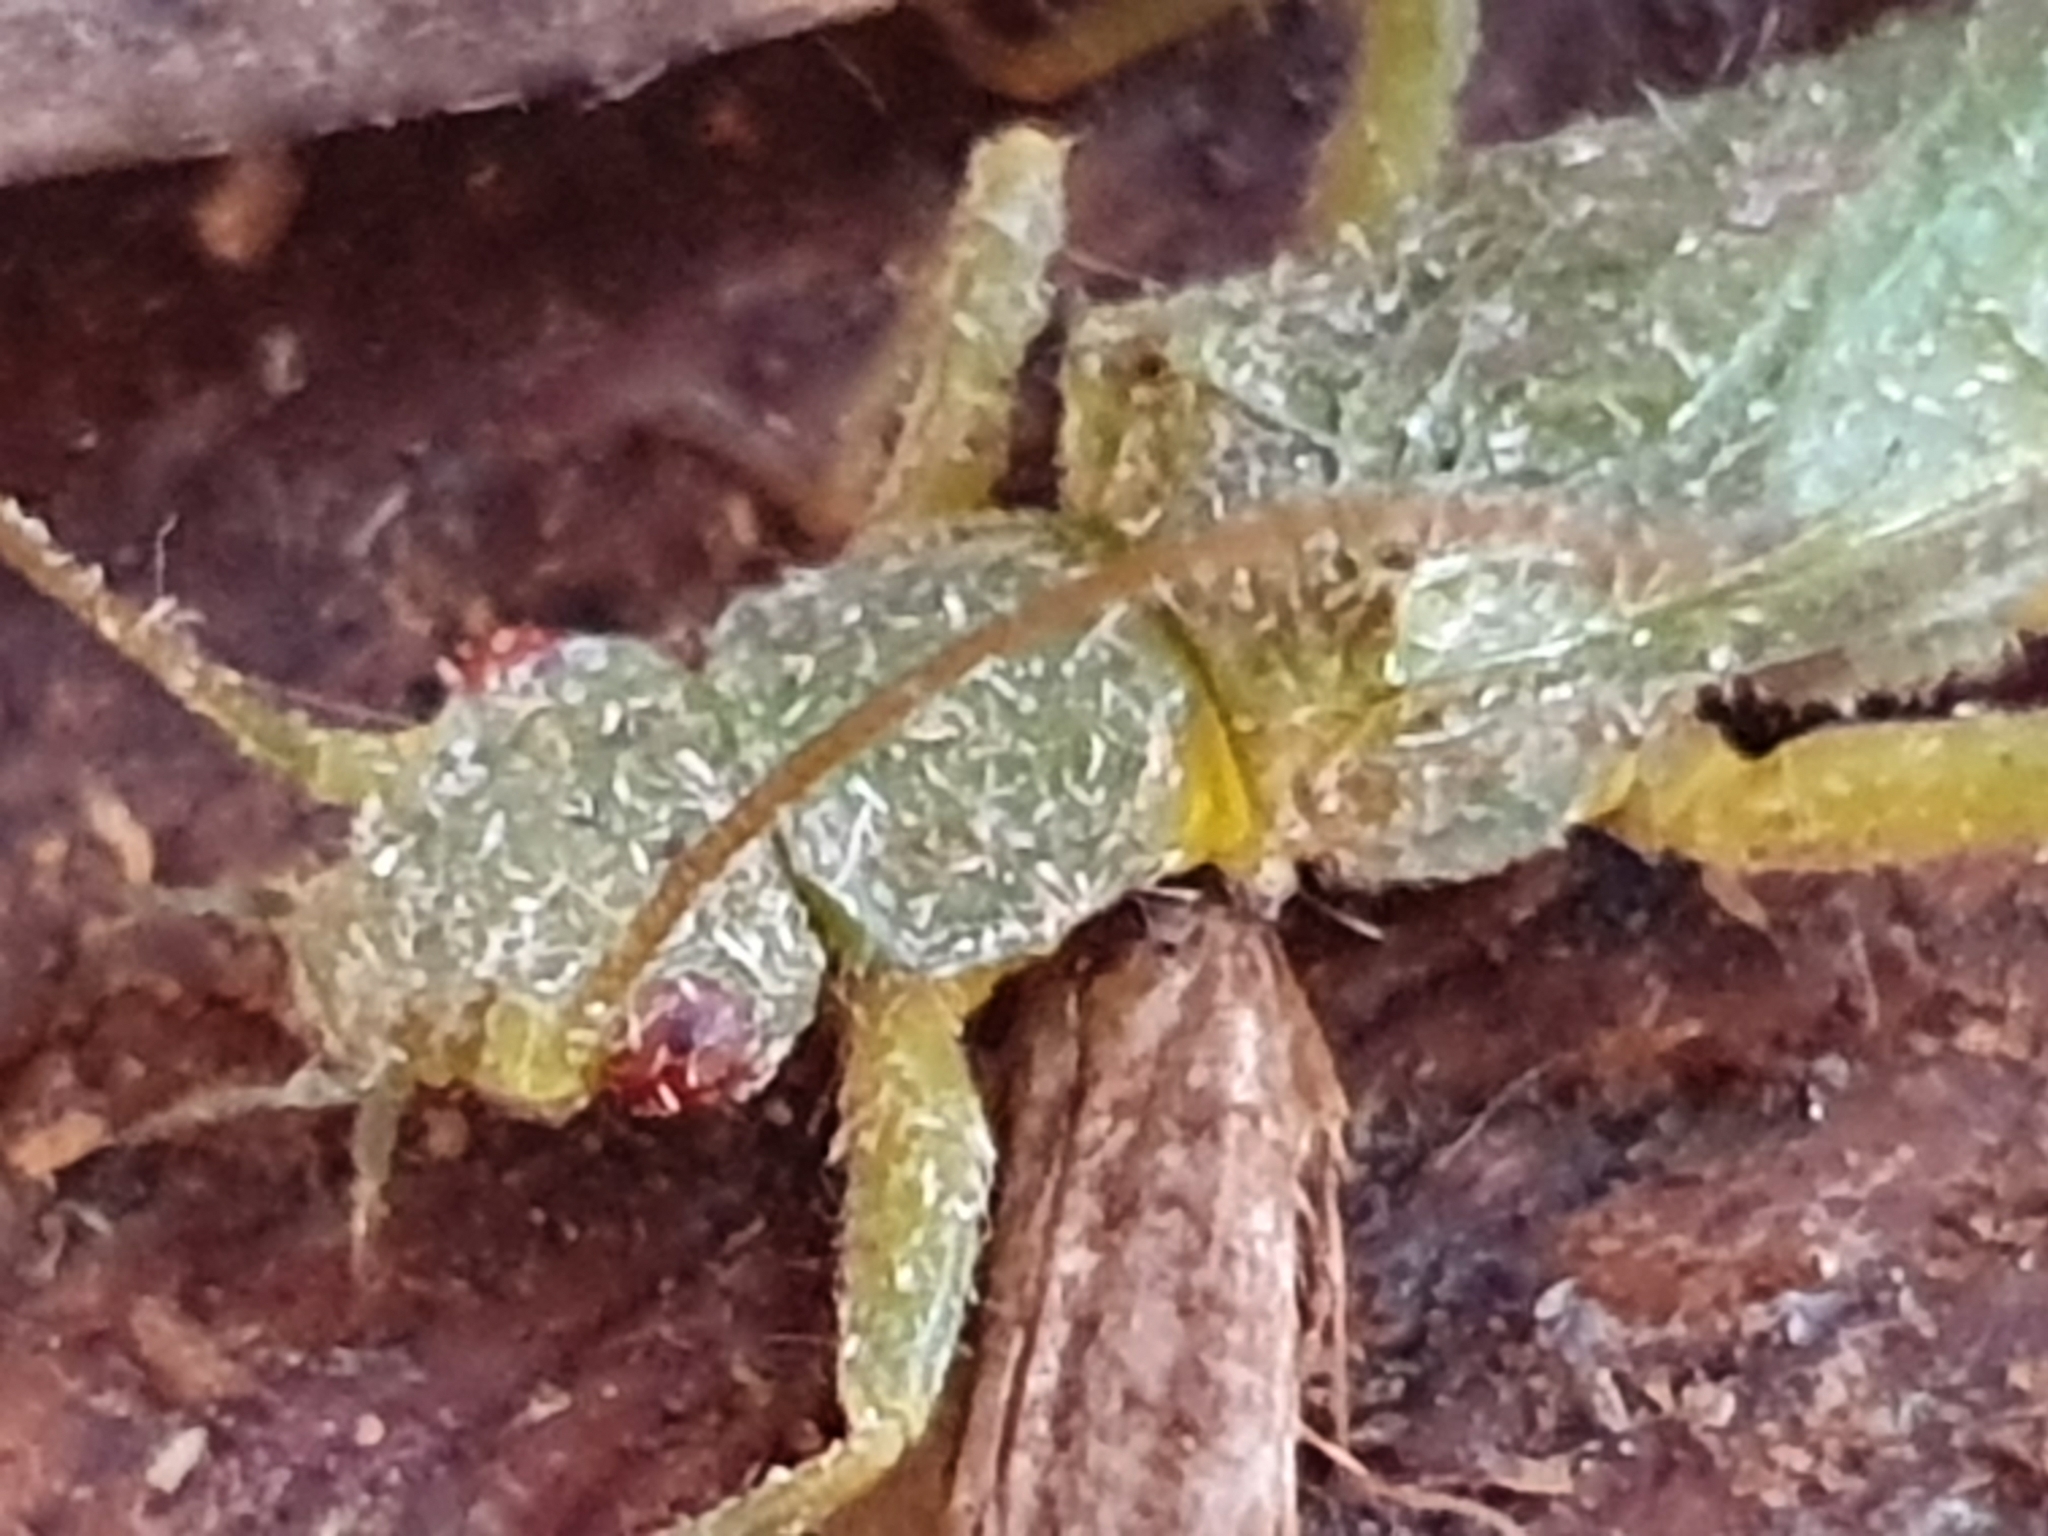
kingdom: Animalia
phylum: Arthropoda
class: Insecta
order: Plecoptera
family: Eustheniidae
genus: Stenoperla
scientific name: Stenoperla
